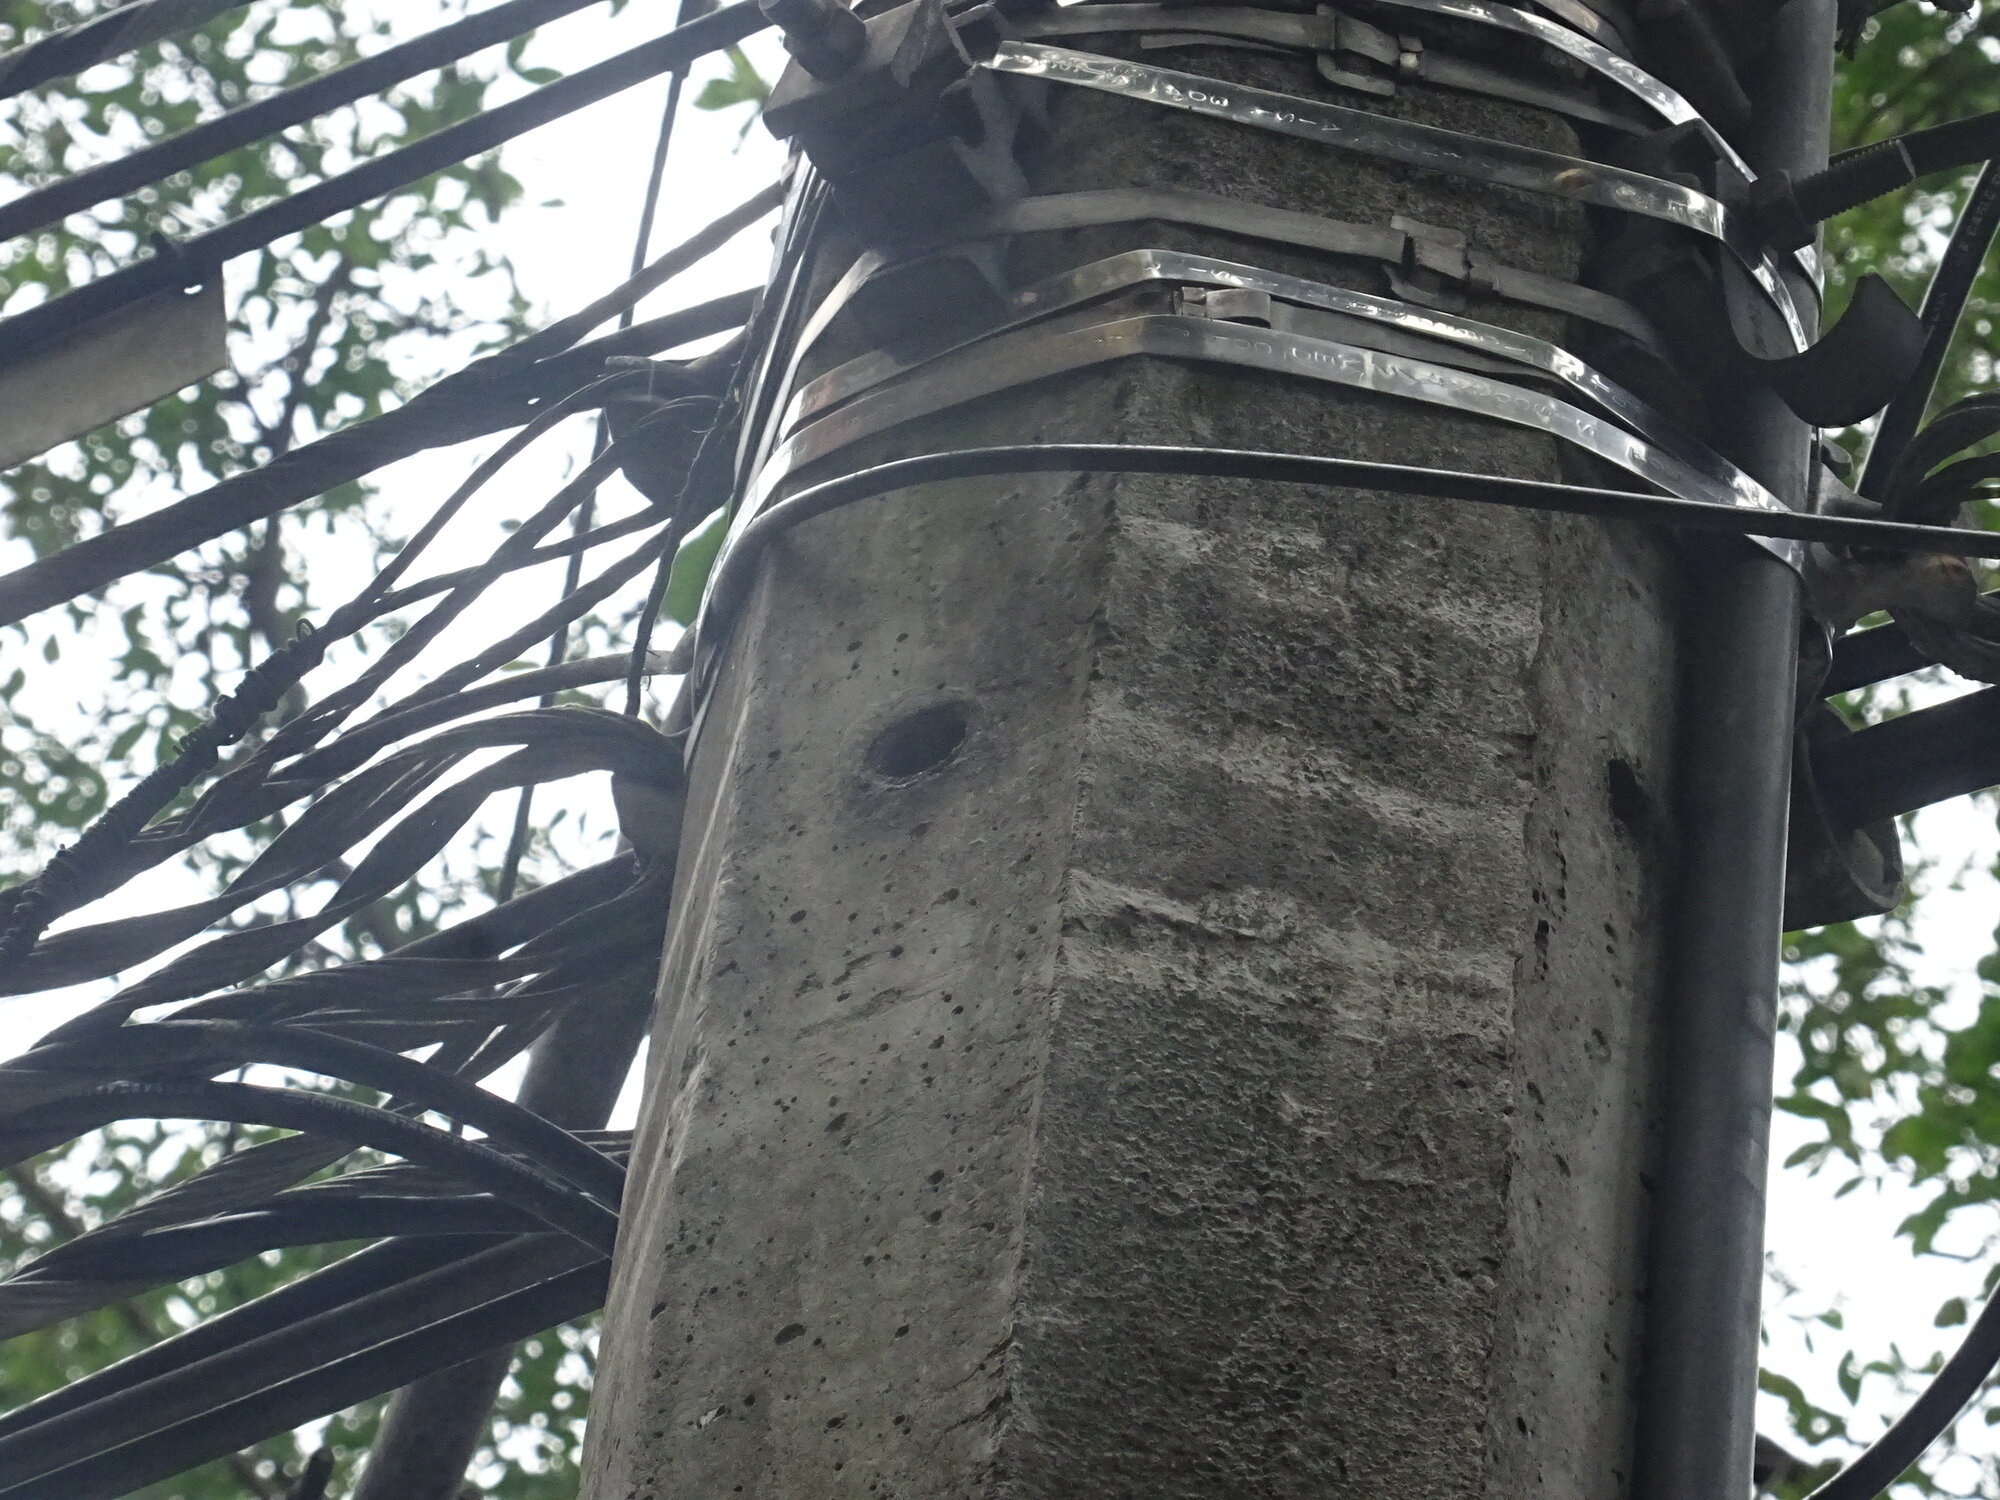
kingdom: Animalia
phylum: Arthropoda
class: Insecta
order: Hymenoptera
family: Apidae
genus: Apis
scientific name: Apis mellifera
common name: Honey bee
